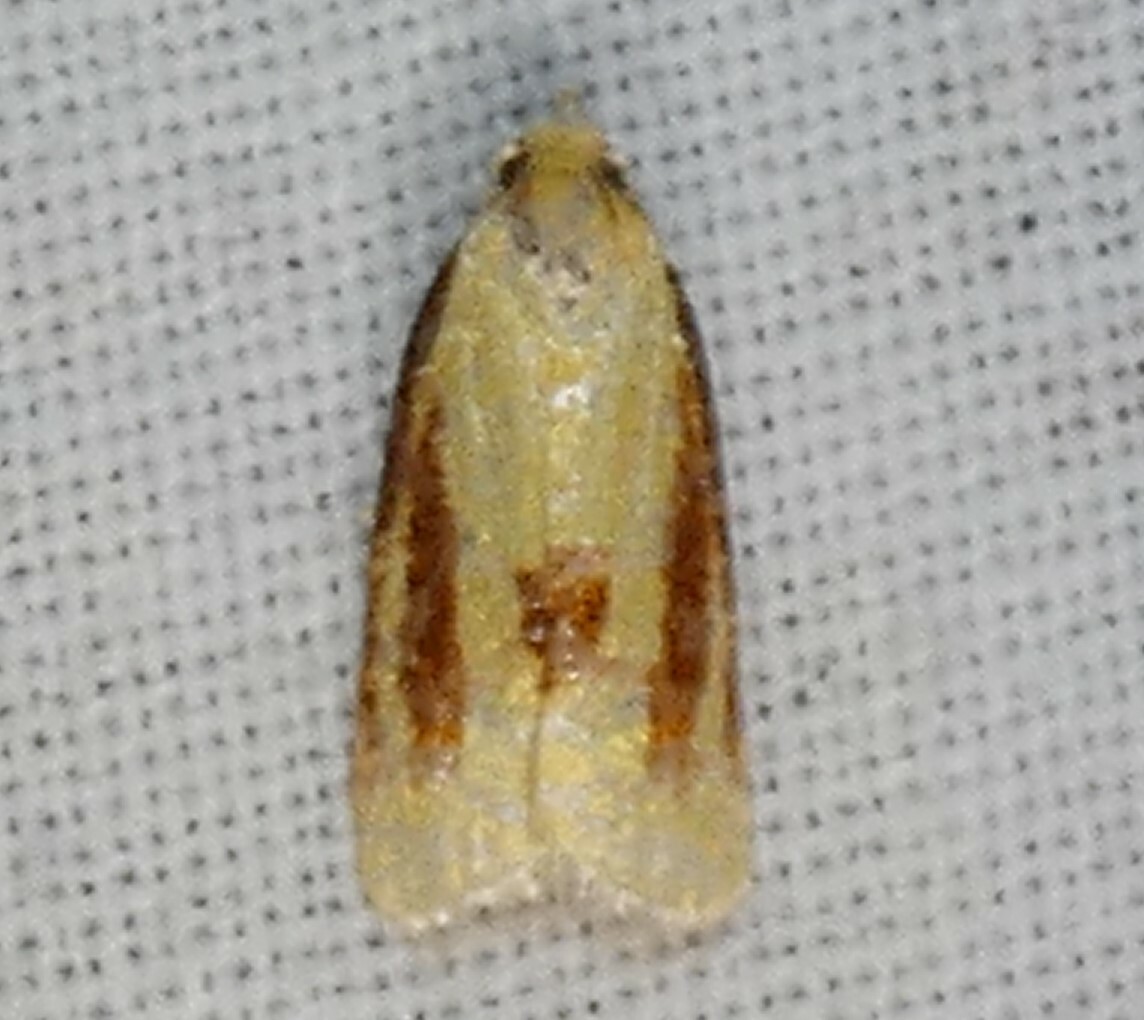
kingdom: Animalia
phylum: Arthropoda
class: Insecta
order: Lepidoptera
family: Tortricidae
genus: Sparganothis
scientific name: Sparganothis bistriata
